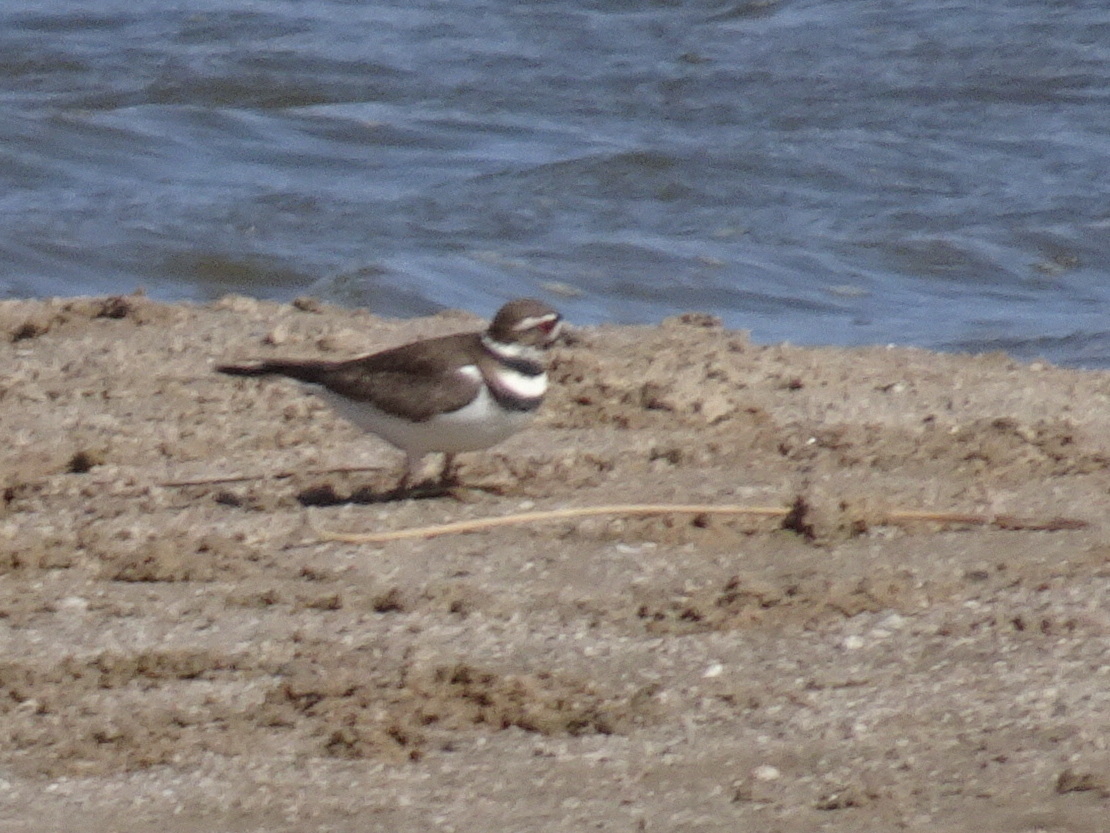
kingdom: Animalia
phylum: Chordata
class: Aves
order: Charadriiformes
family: Charadriidae
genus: Charadrius
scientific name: Charadrius vociferus
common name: Killdeer
